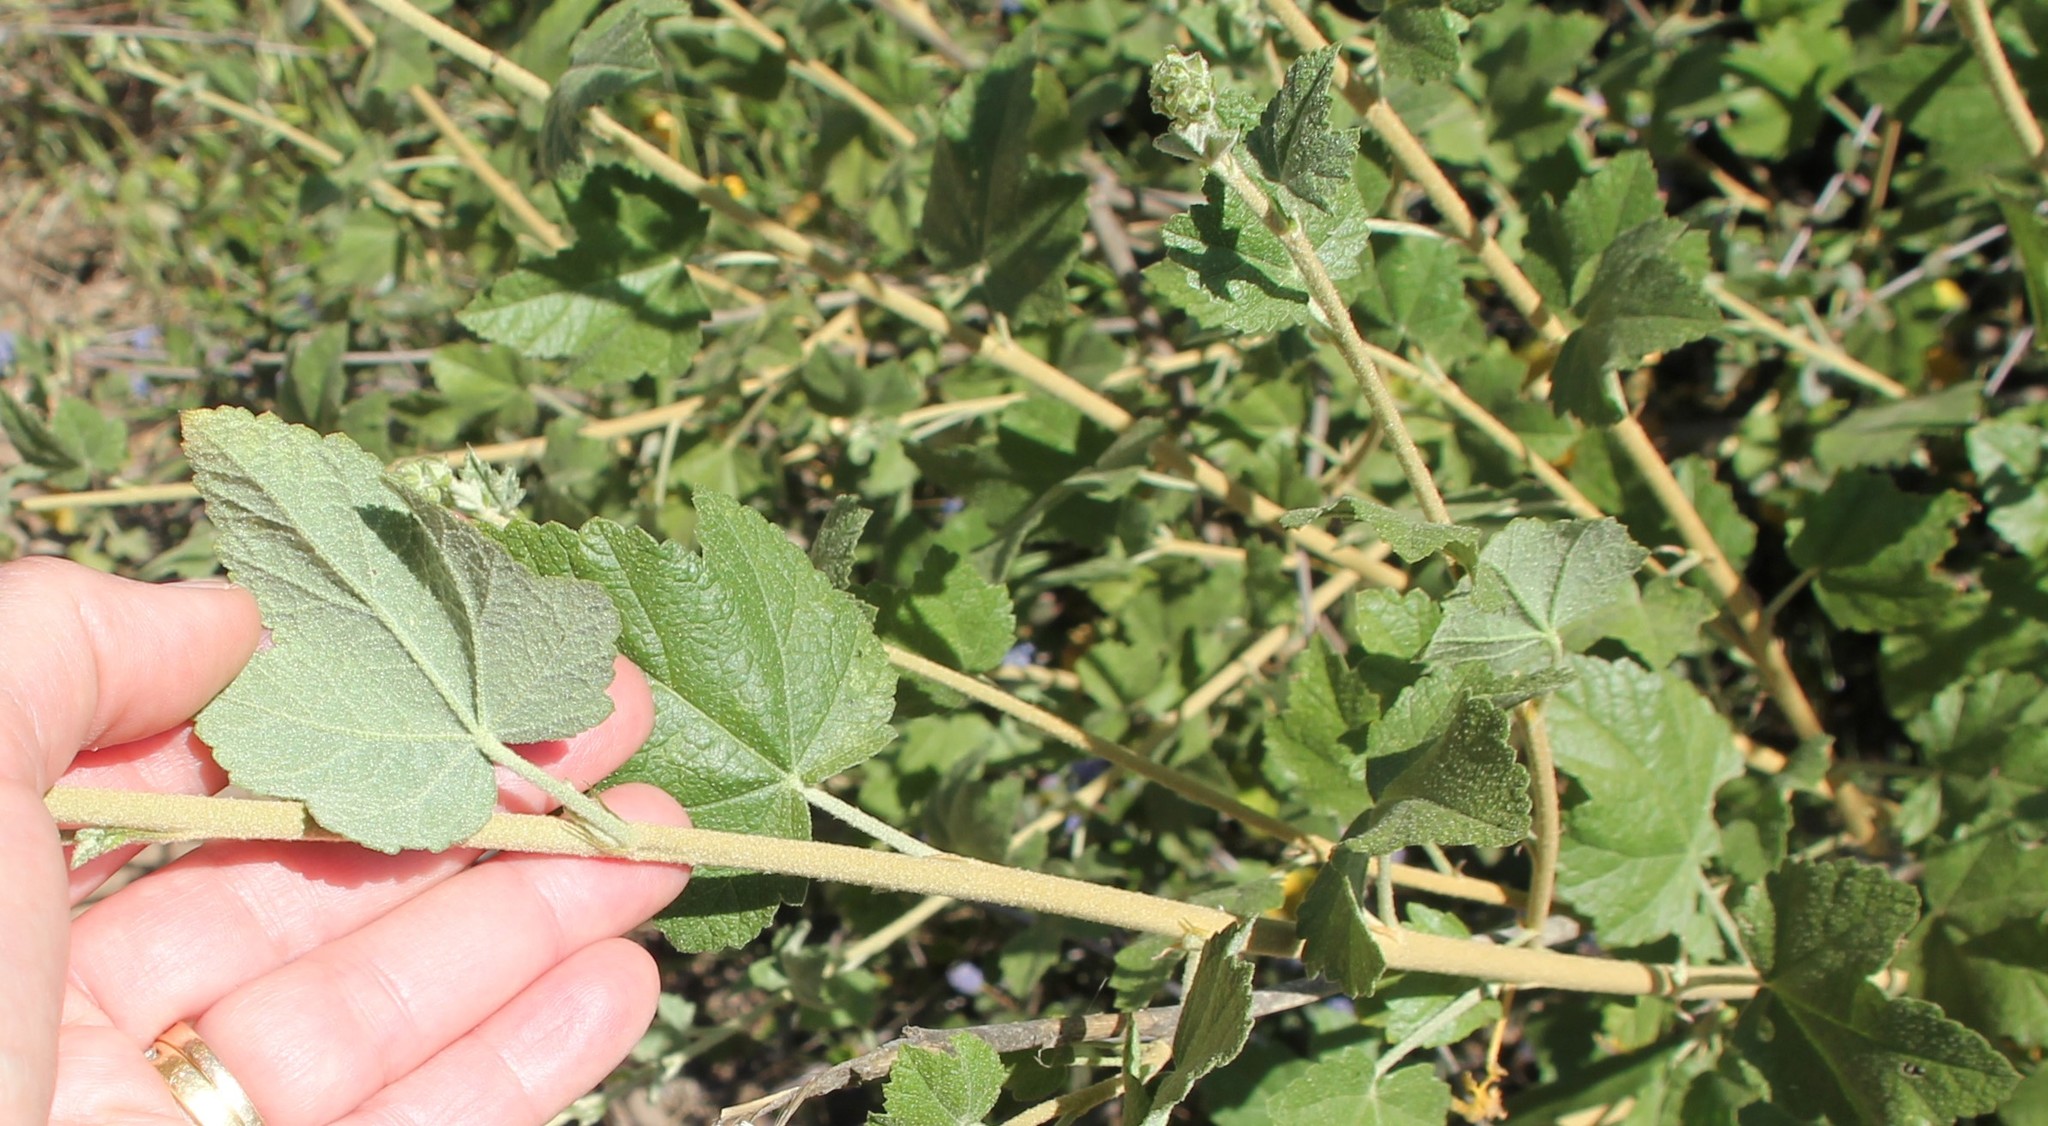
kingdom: Plantae
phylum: Tracheophyta
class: Magnoliopsida
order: Malvales
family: Malvaceae
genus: Malacothamnus
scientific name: Malacothamnus fasciculatus
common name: Sant cruz island bush-mallow
